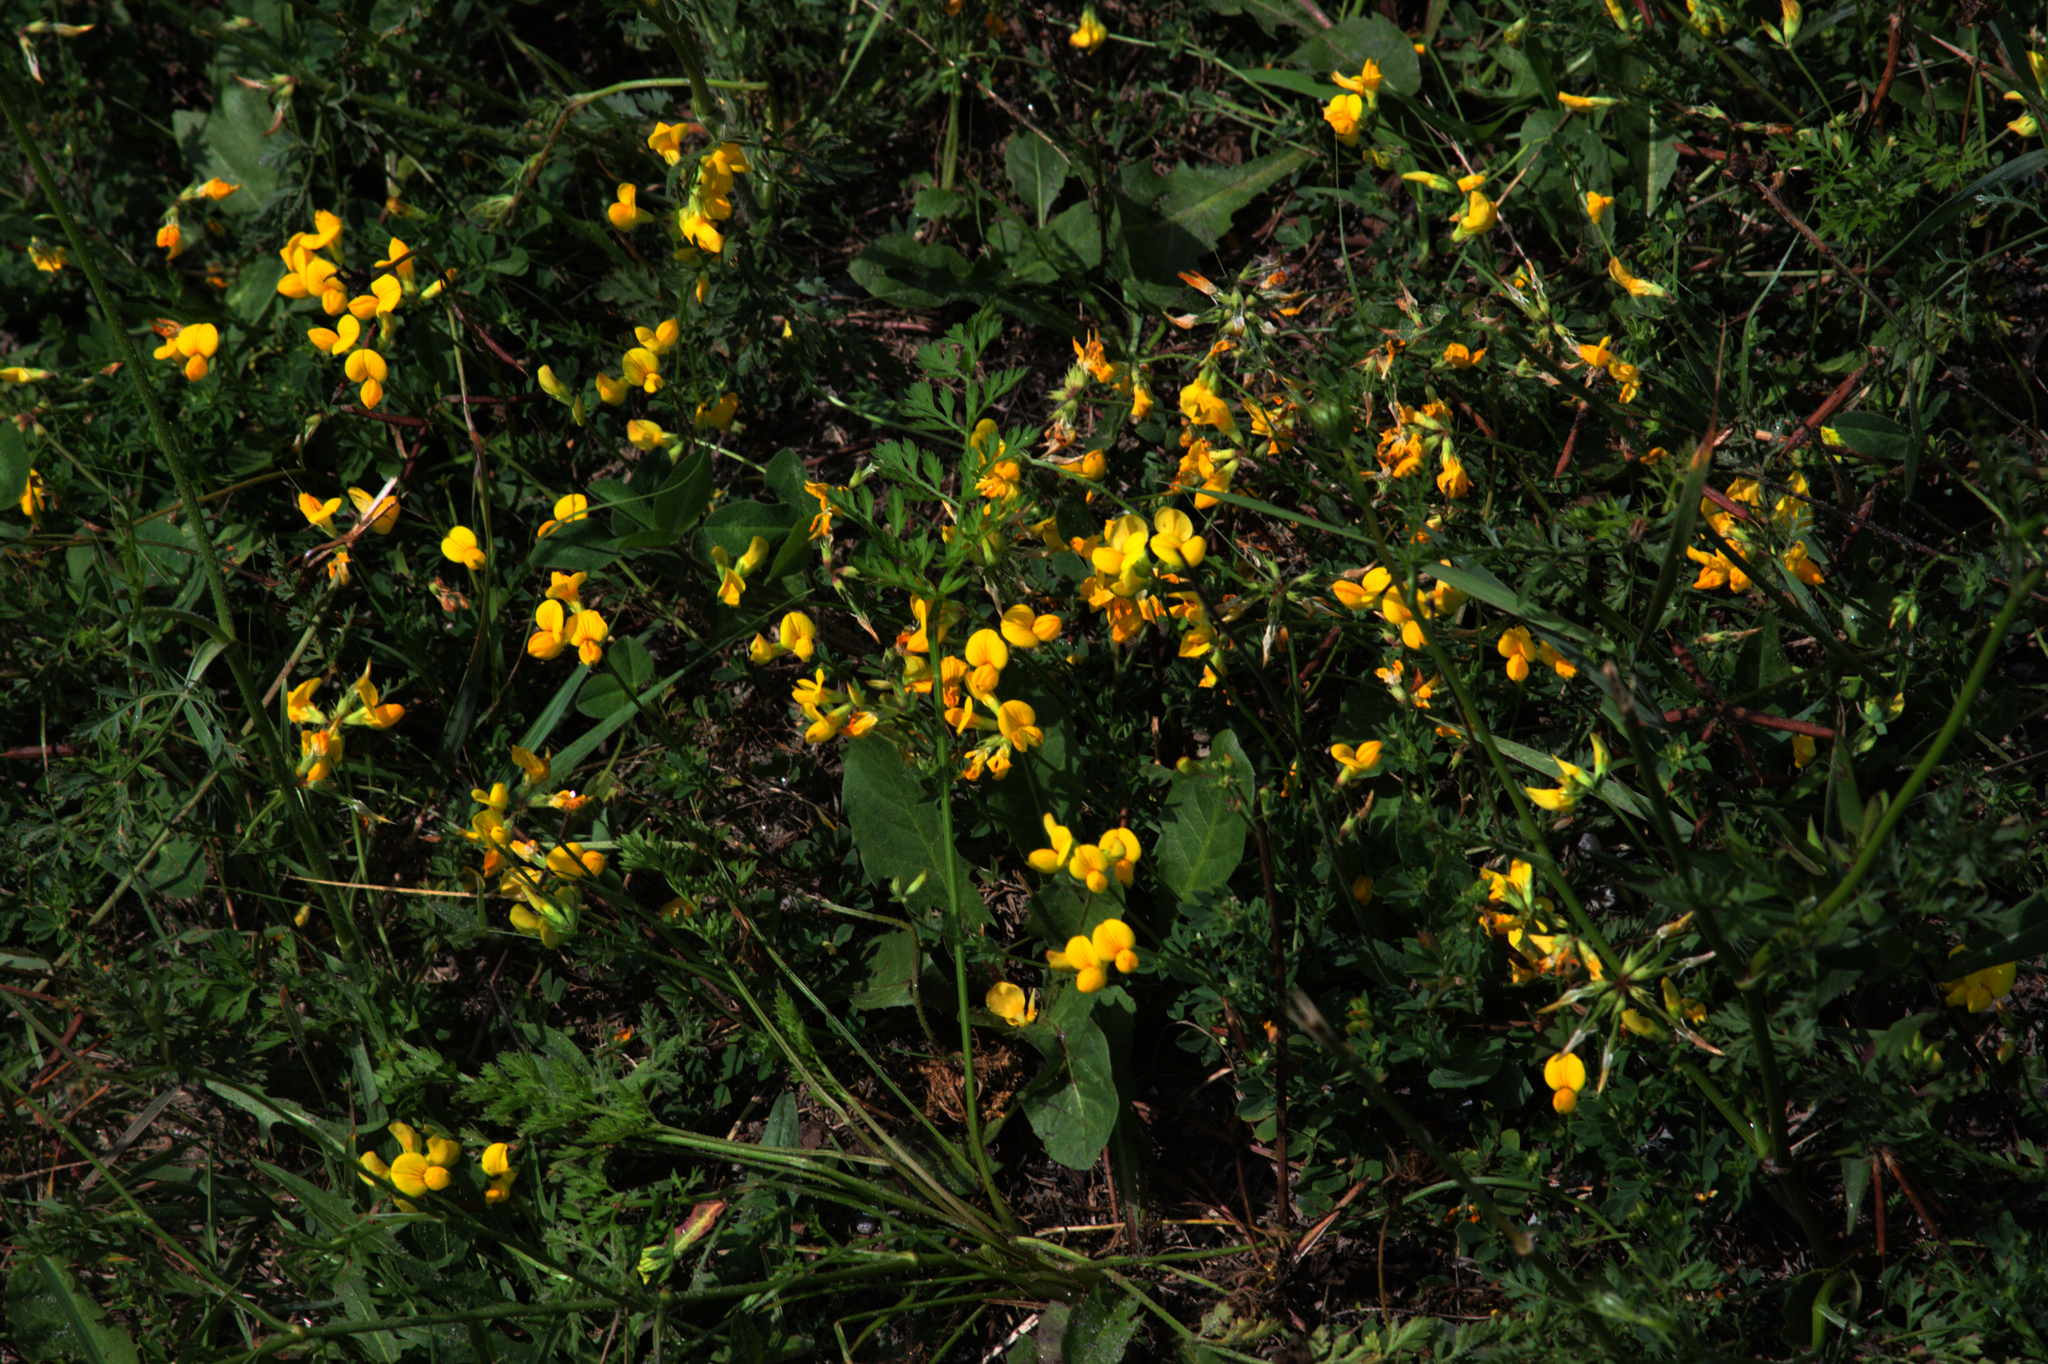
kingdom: Plantae
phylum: Tracheophyta
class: Magnoliopsida
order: Fabales
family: Fabaceae
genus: Lotus
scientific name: Lotus corniculatus
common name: Common bird's-foot-trefoil
